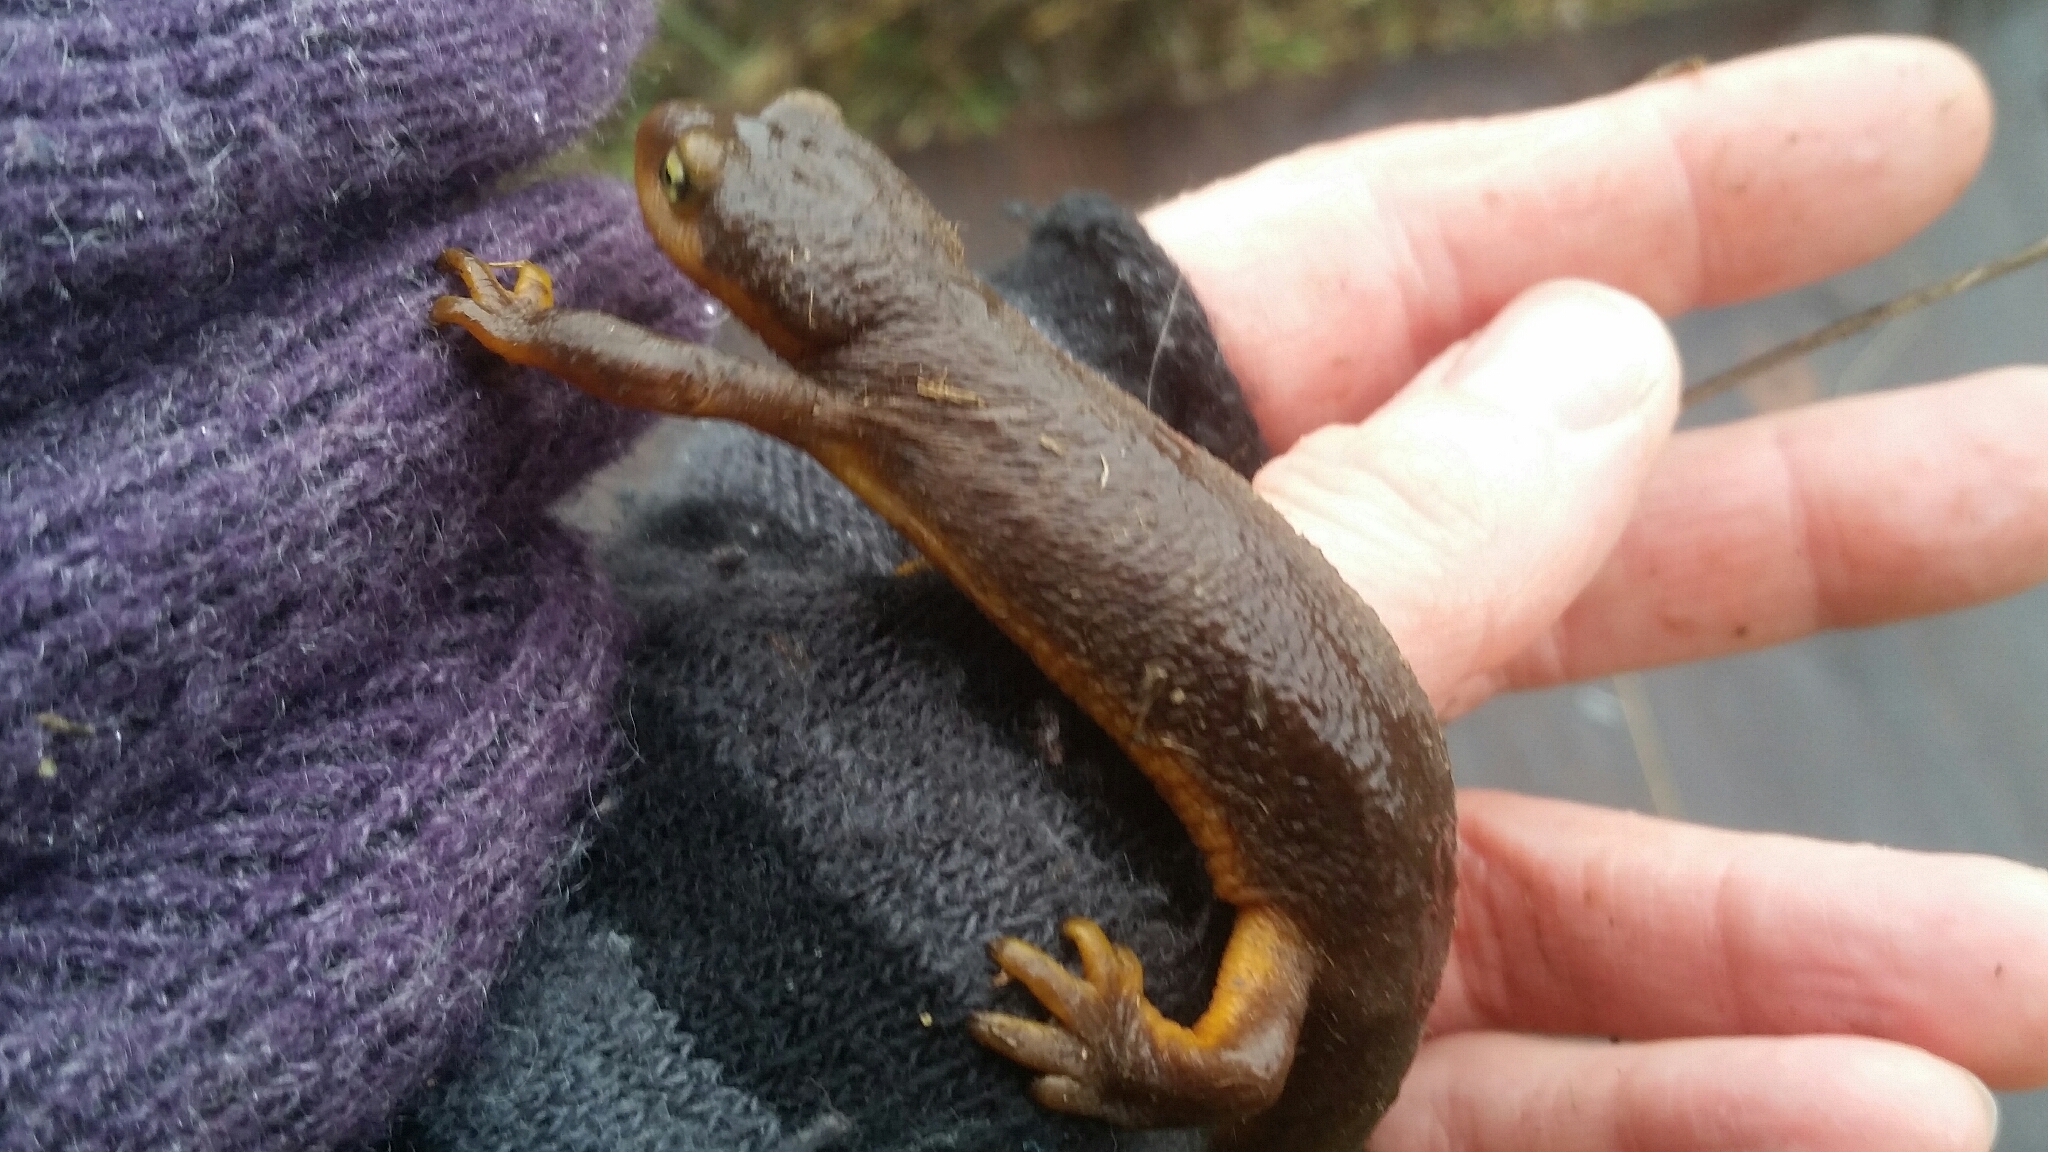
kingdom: Animalia
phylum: Chordata
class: Amphibia
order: Caudata
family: Salamandridae
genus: Taricha
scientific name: Taricha torosa
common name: California newt
